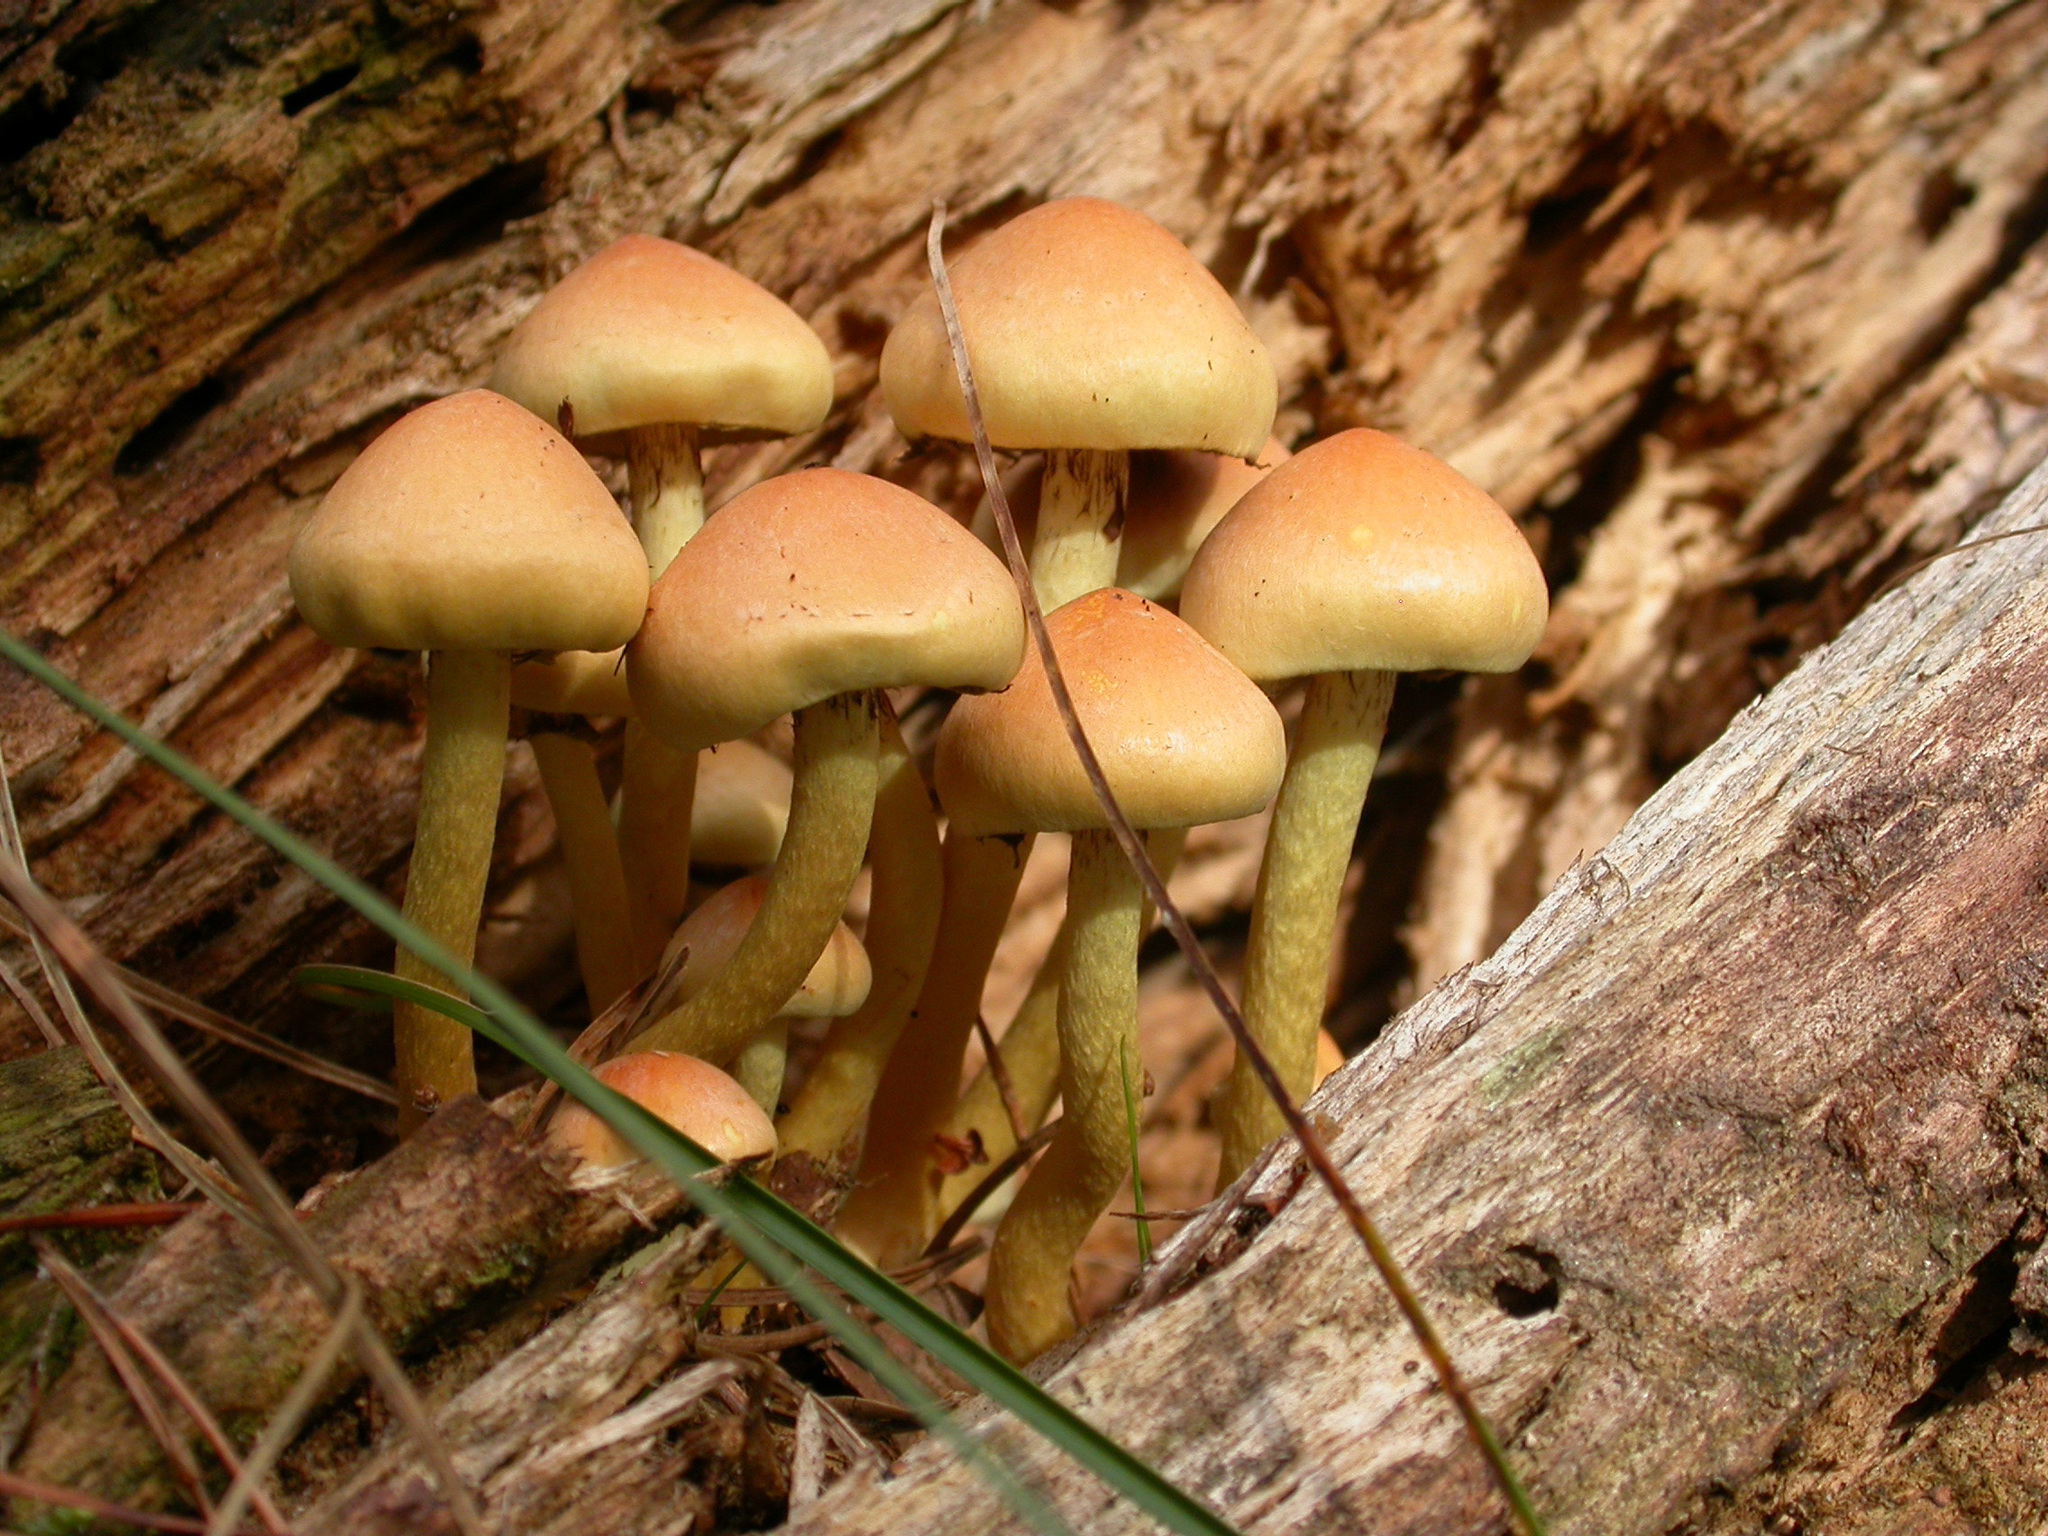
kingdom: Fungi
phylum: Basidiomycota
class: Agaricomycetes
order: Agaricales
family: Strophariaceae
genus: Hypholoma
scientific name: Hypholoma fasciculare
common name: Sulphur tuft
